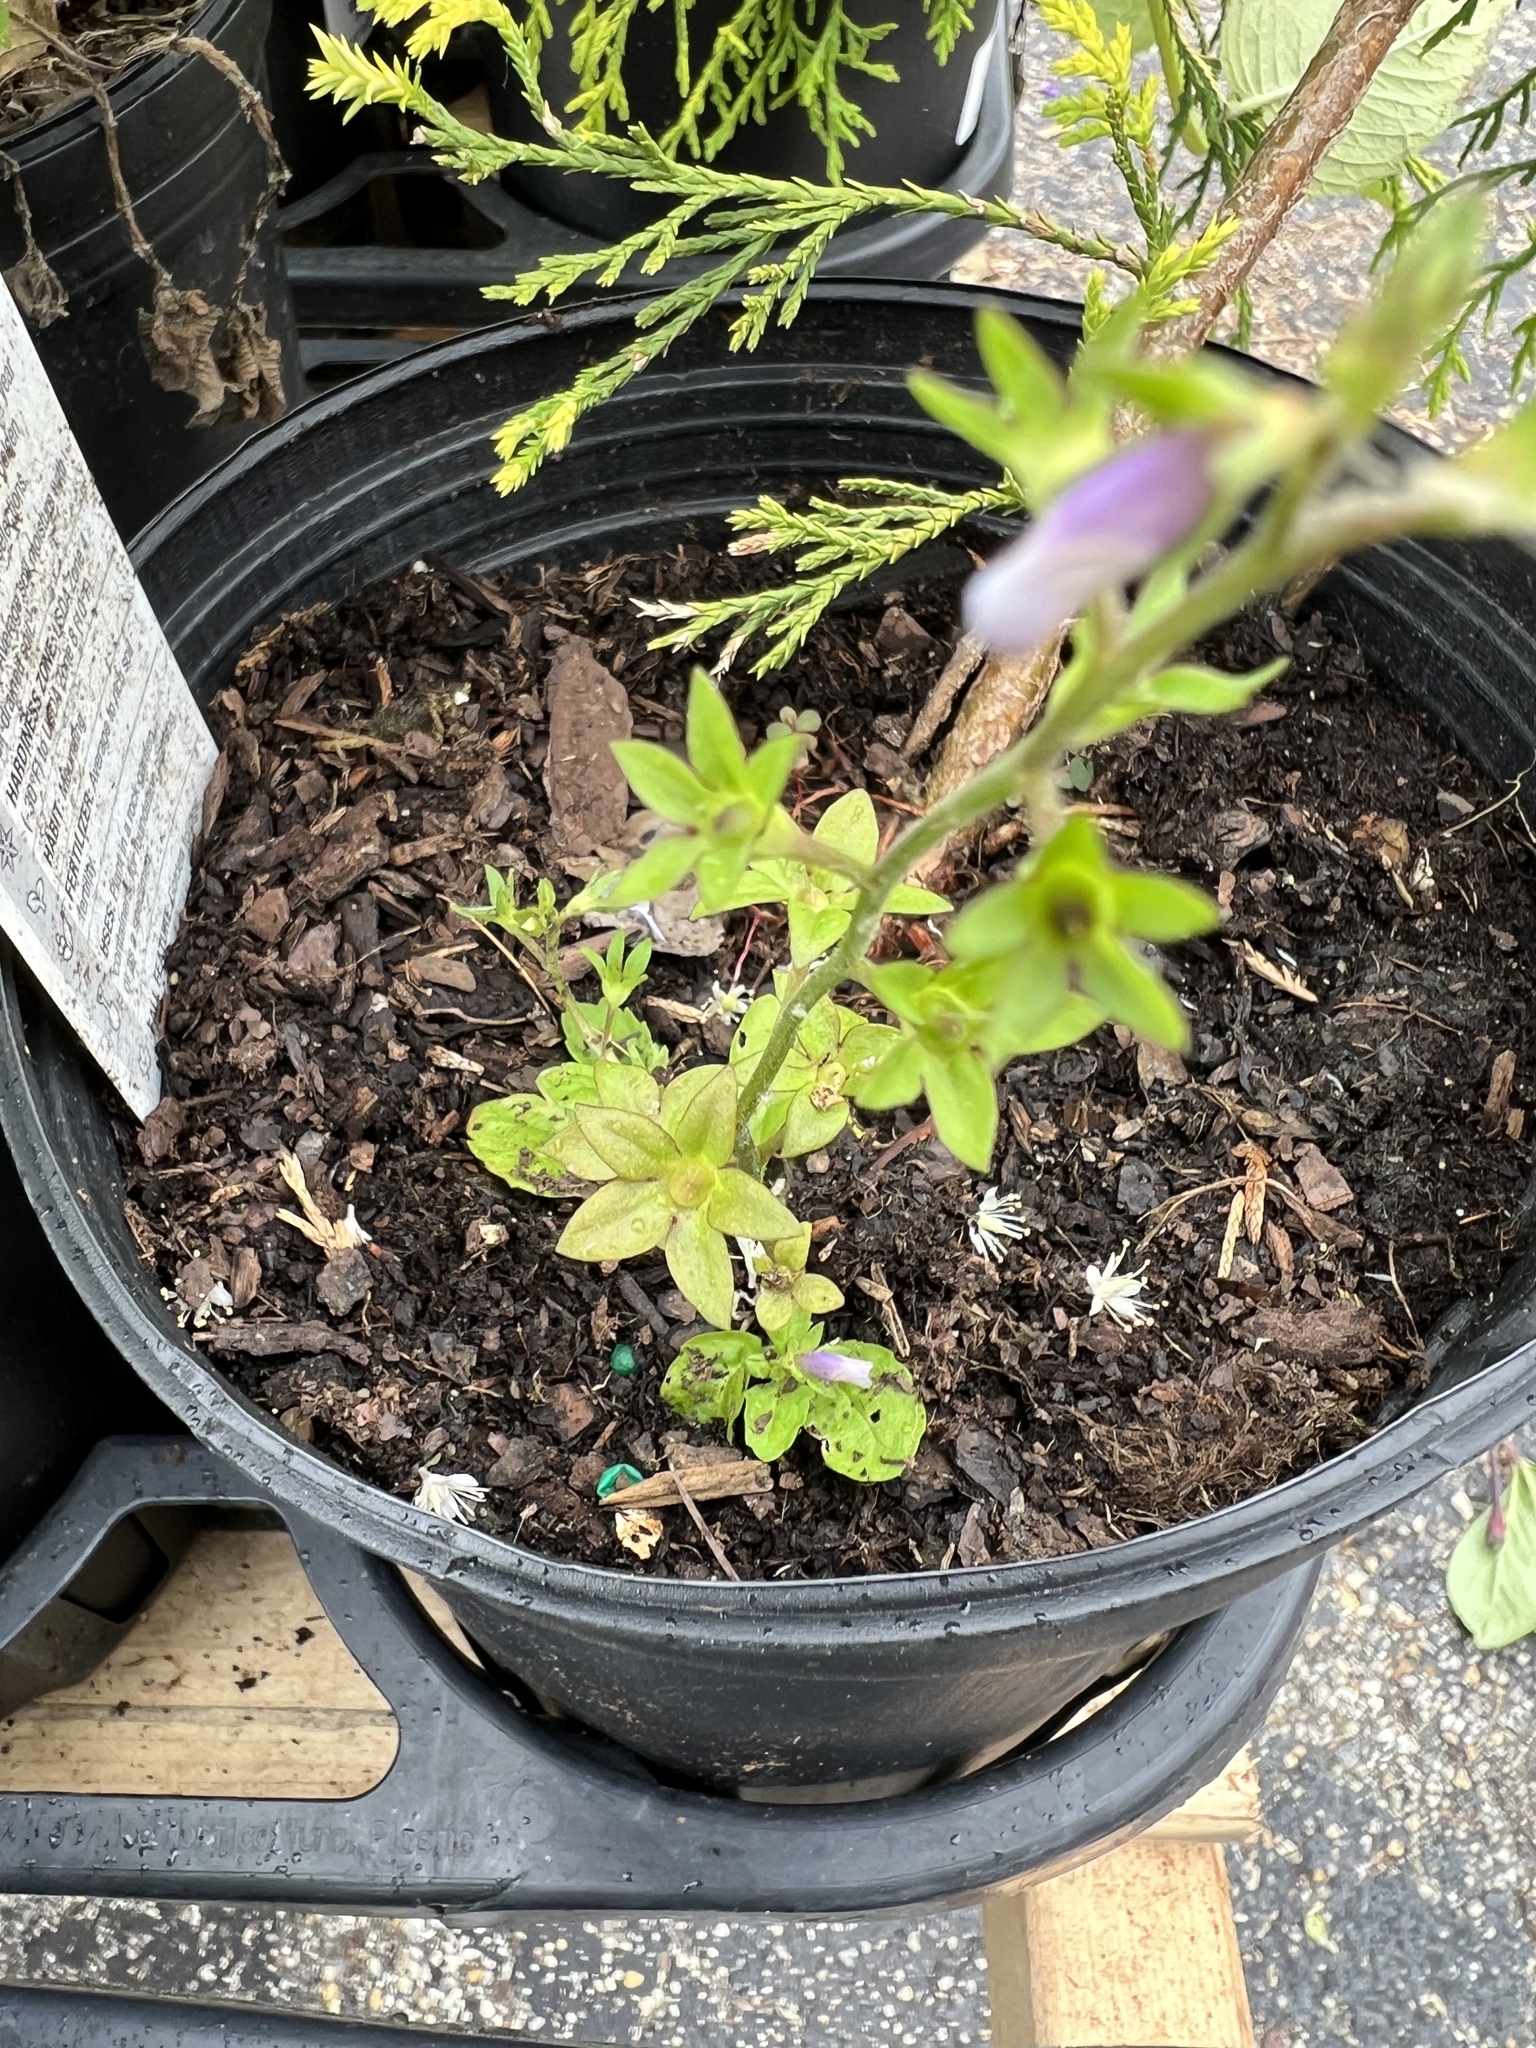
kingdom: Plantae
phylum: Tracheophyta
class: Magnoliopsida
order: Lamiales
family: Mazaceae
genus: Mazus
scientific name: Mazus pumilus
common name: Japanese mazus
